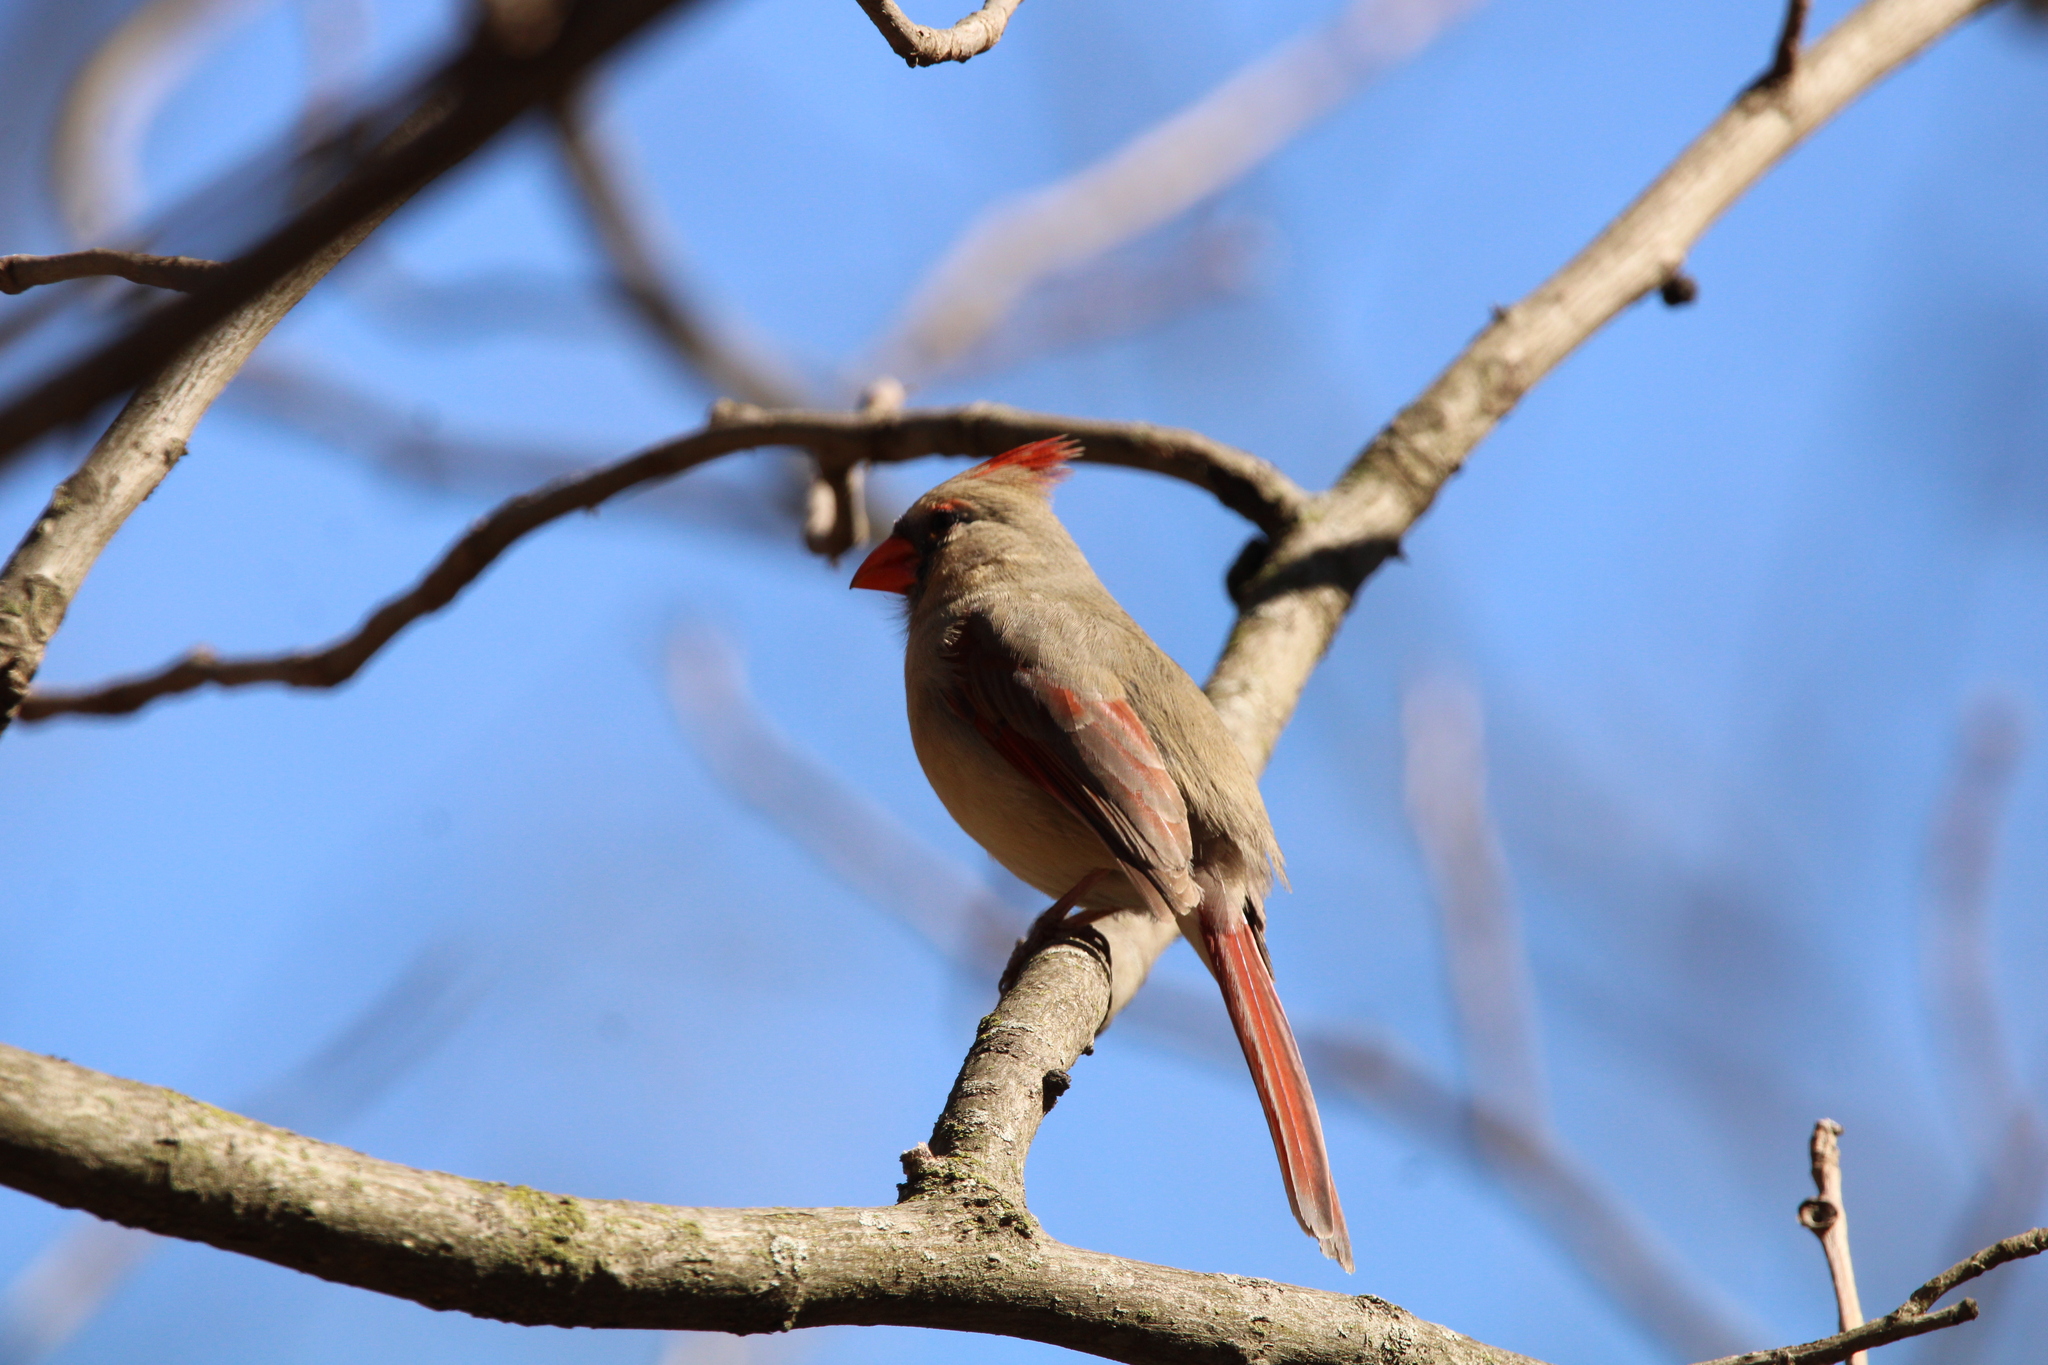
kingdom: Animalia
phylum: Chordata
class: Aves
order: Passeriformes
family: Cardinalidae
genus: Cardinalis
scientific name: Cardinalis cardinalis
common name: Northern cardinal
